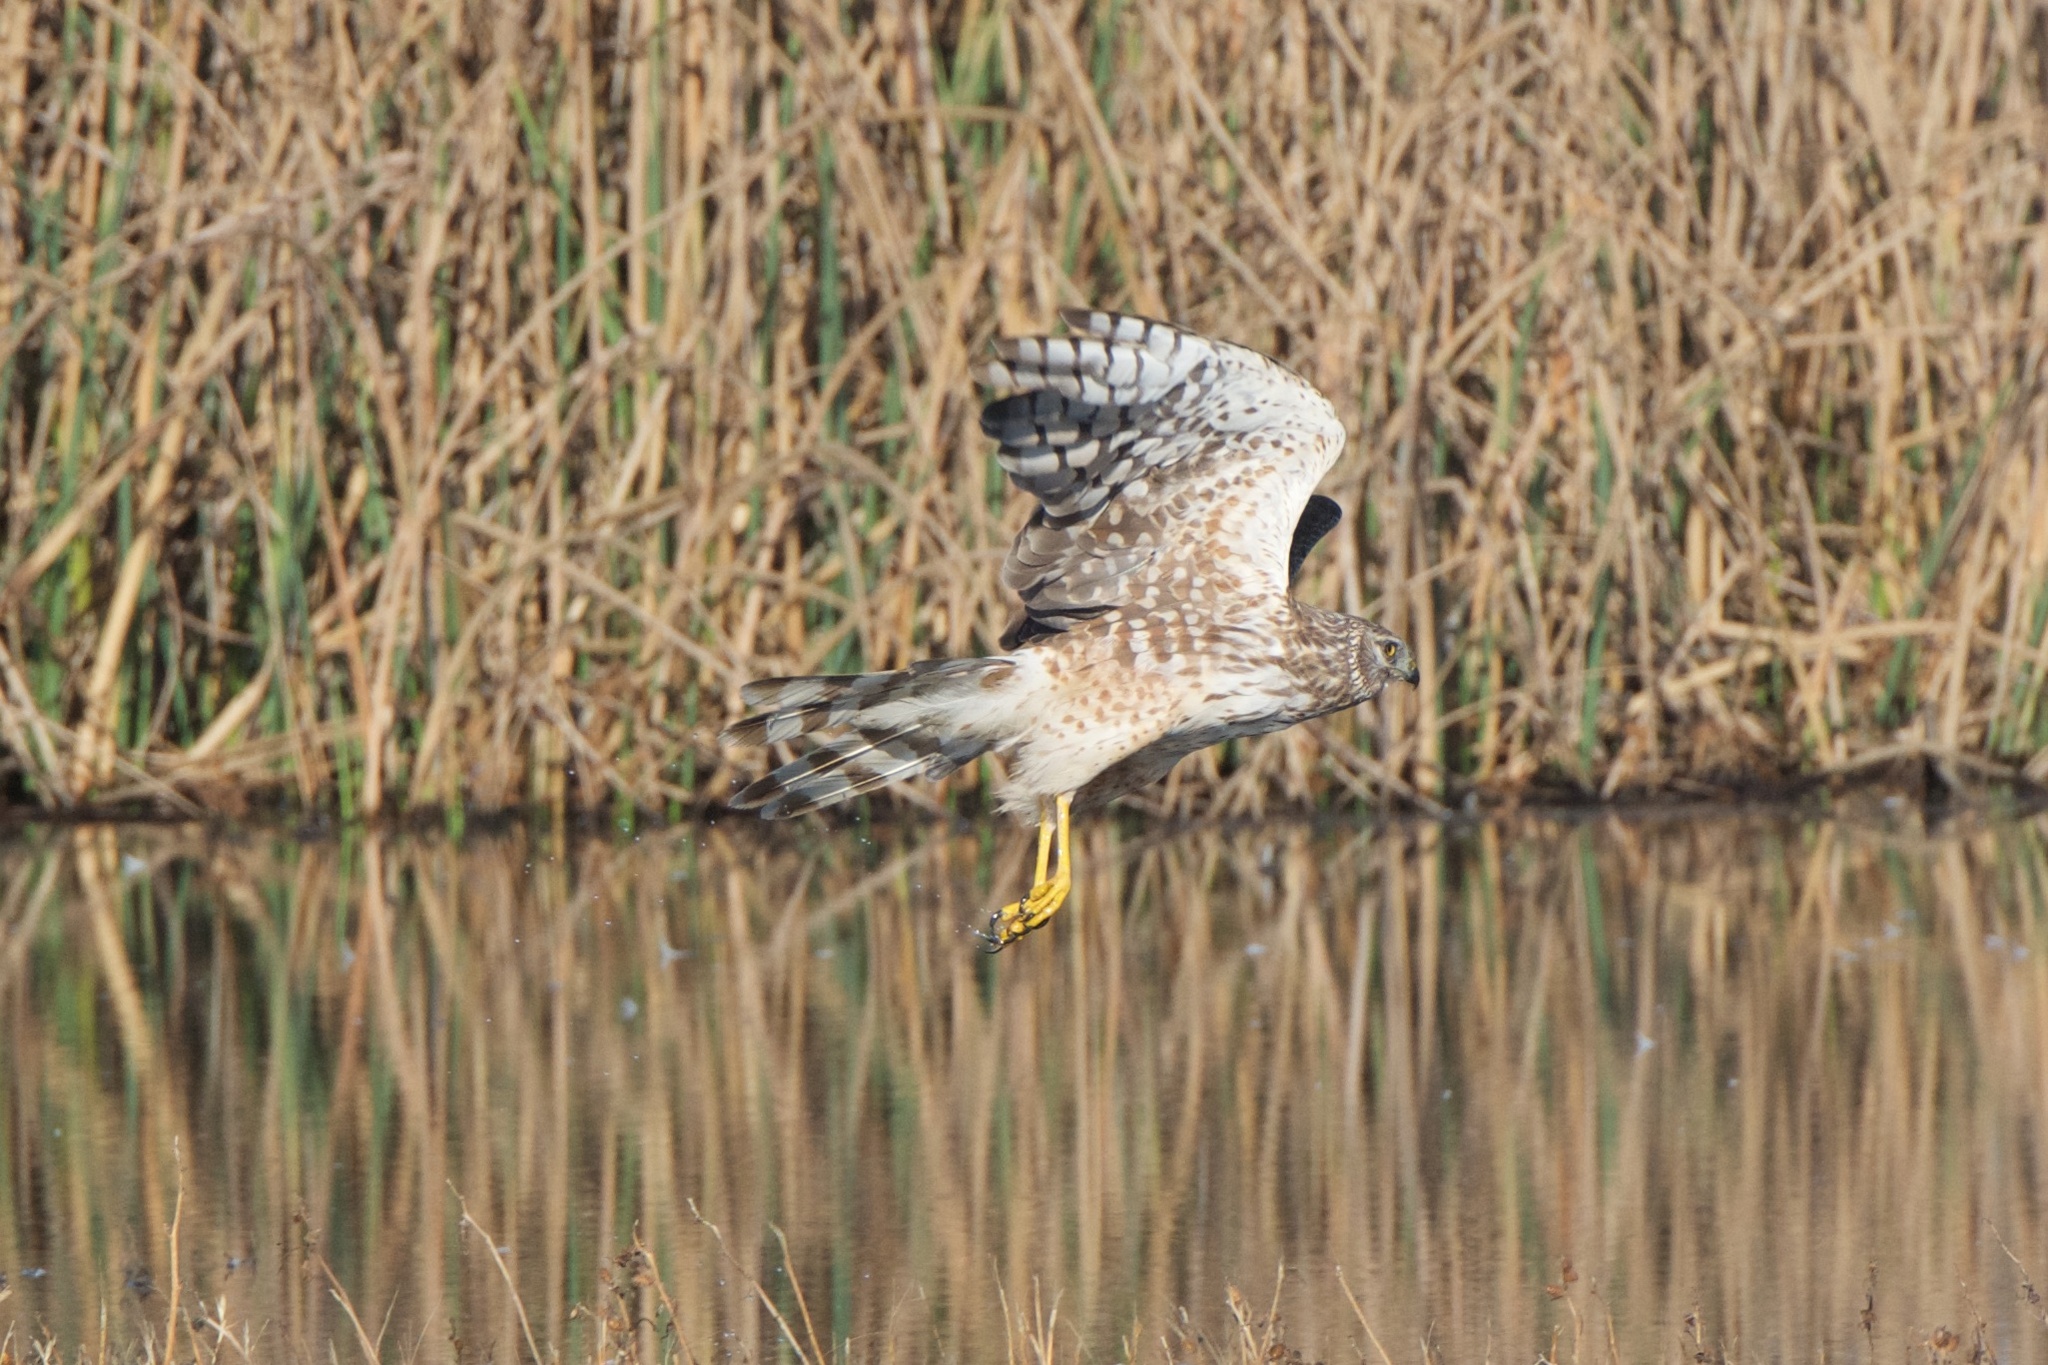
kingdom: Animalia
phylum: Chordata
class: Aves
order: Accipitriformes
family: Accipitridae
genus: Circus
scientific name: Circus cyaneus
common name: Hen harrier
